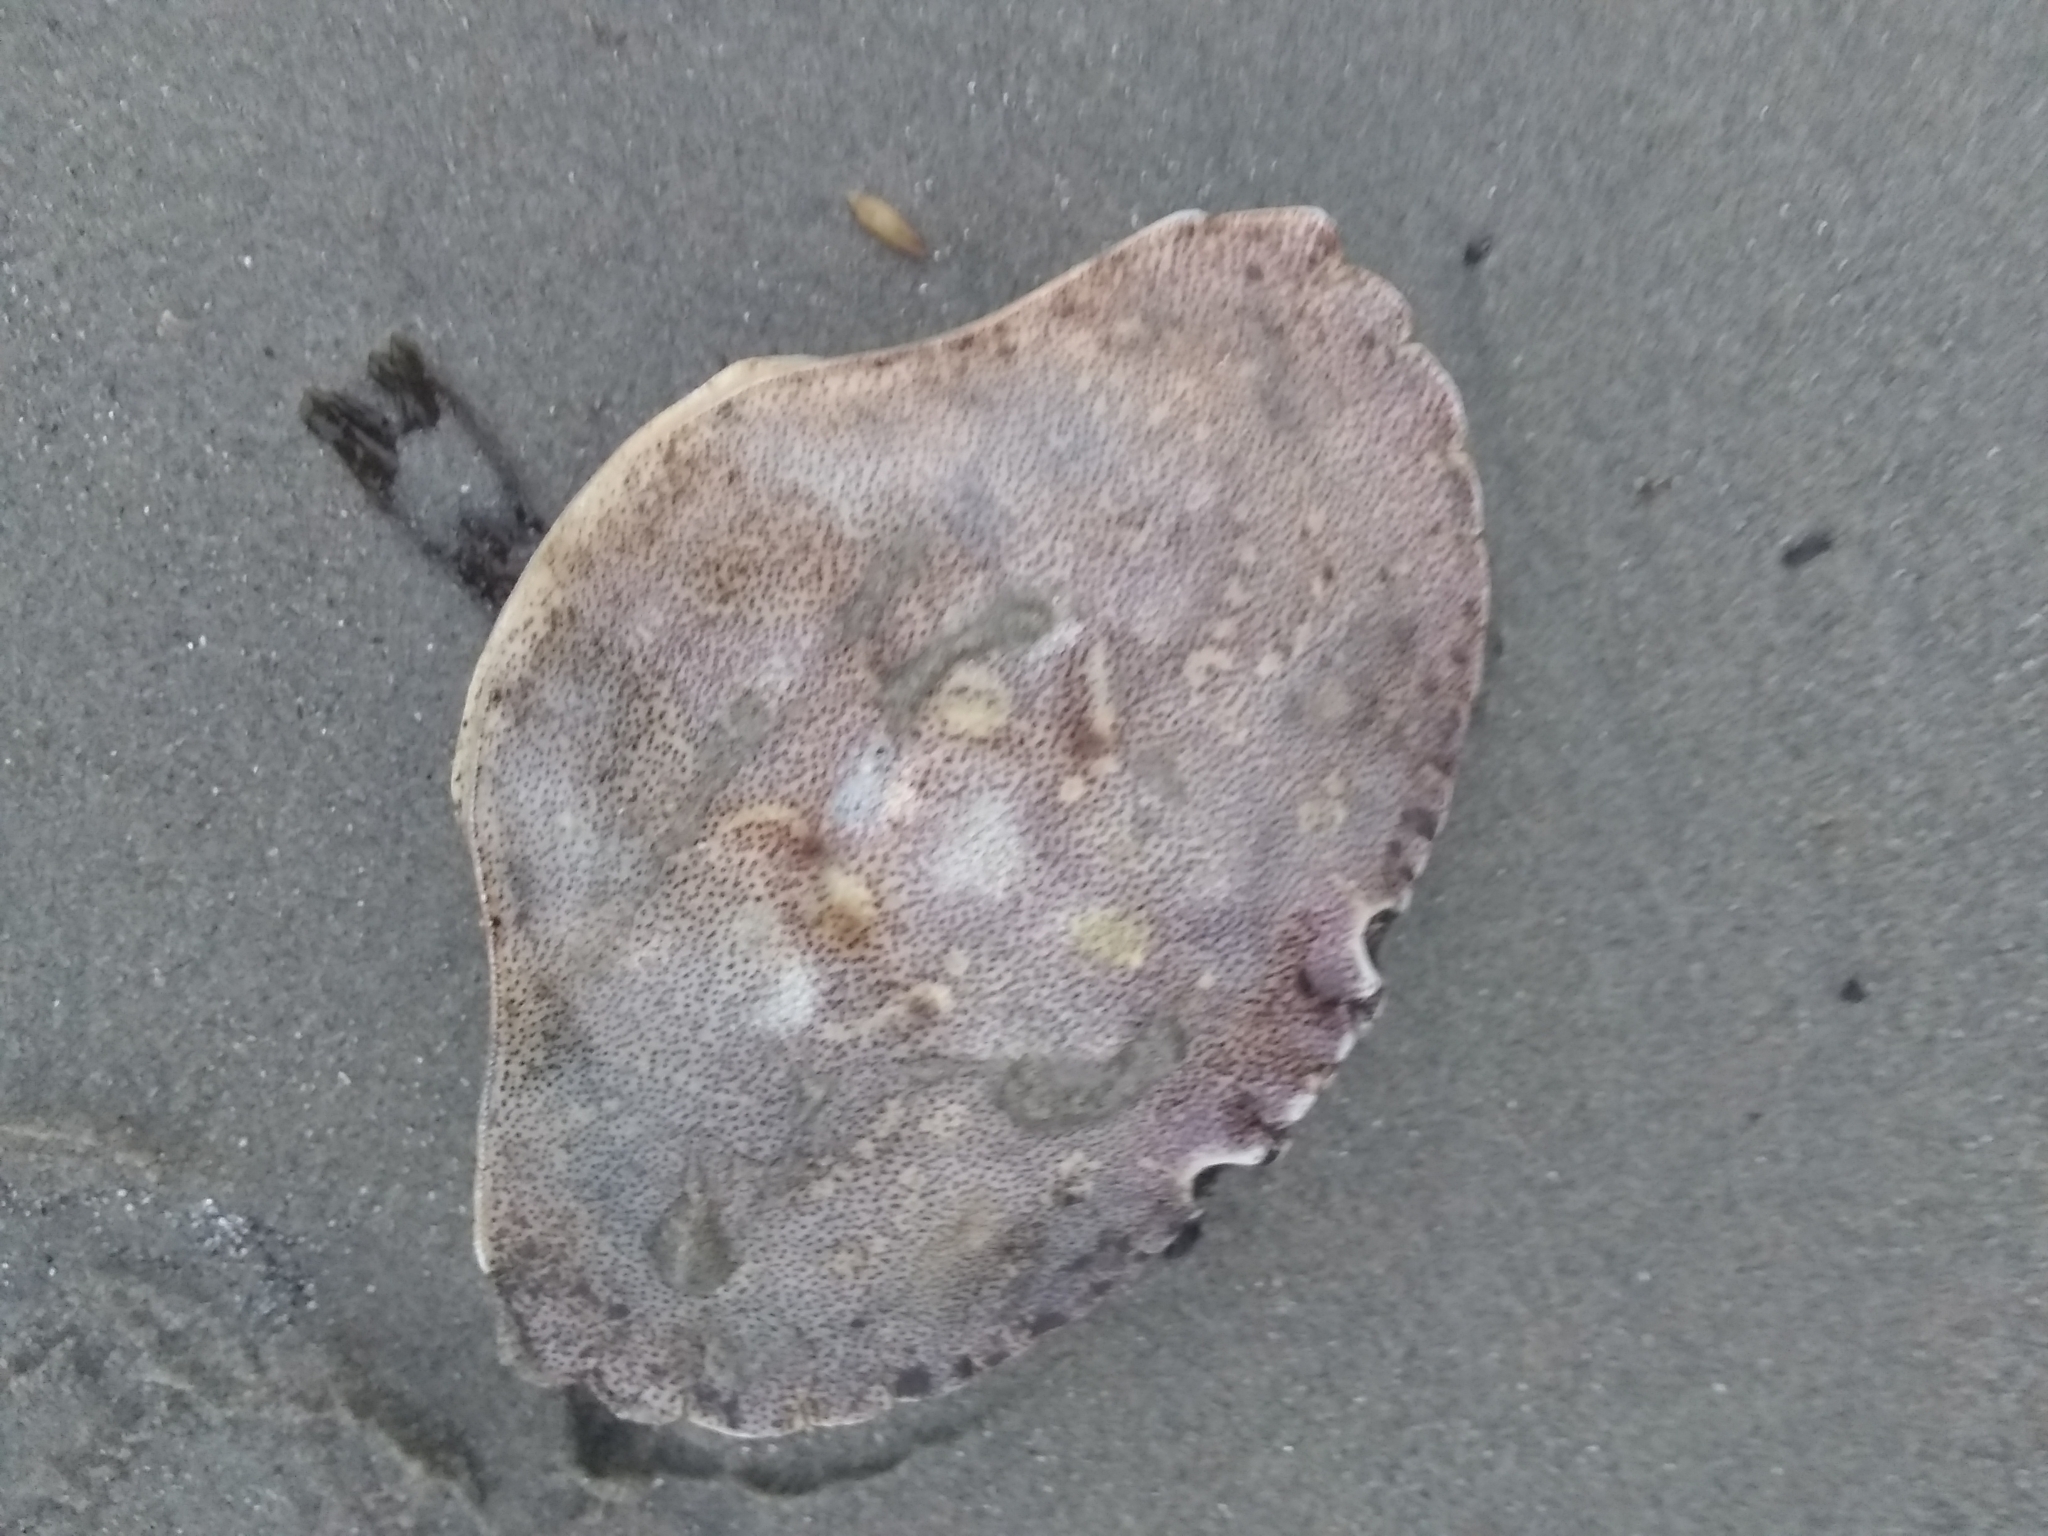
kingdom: Animalia
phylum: Arthropoda
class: Malacostraca
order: Decapoda
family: Cancridae
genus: Cancer
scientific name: Cancer irroratus
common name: Atlantic rock crab
